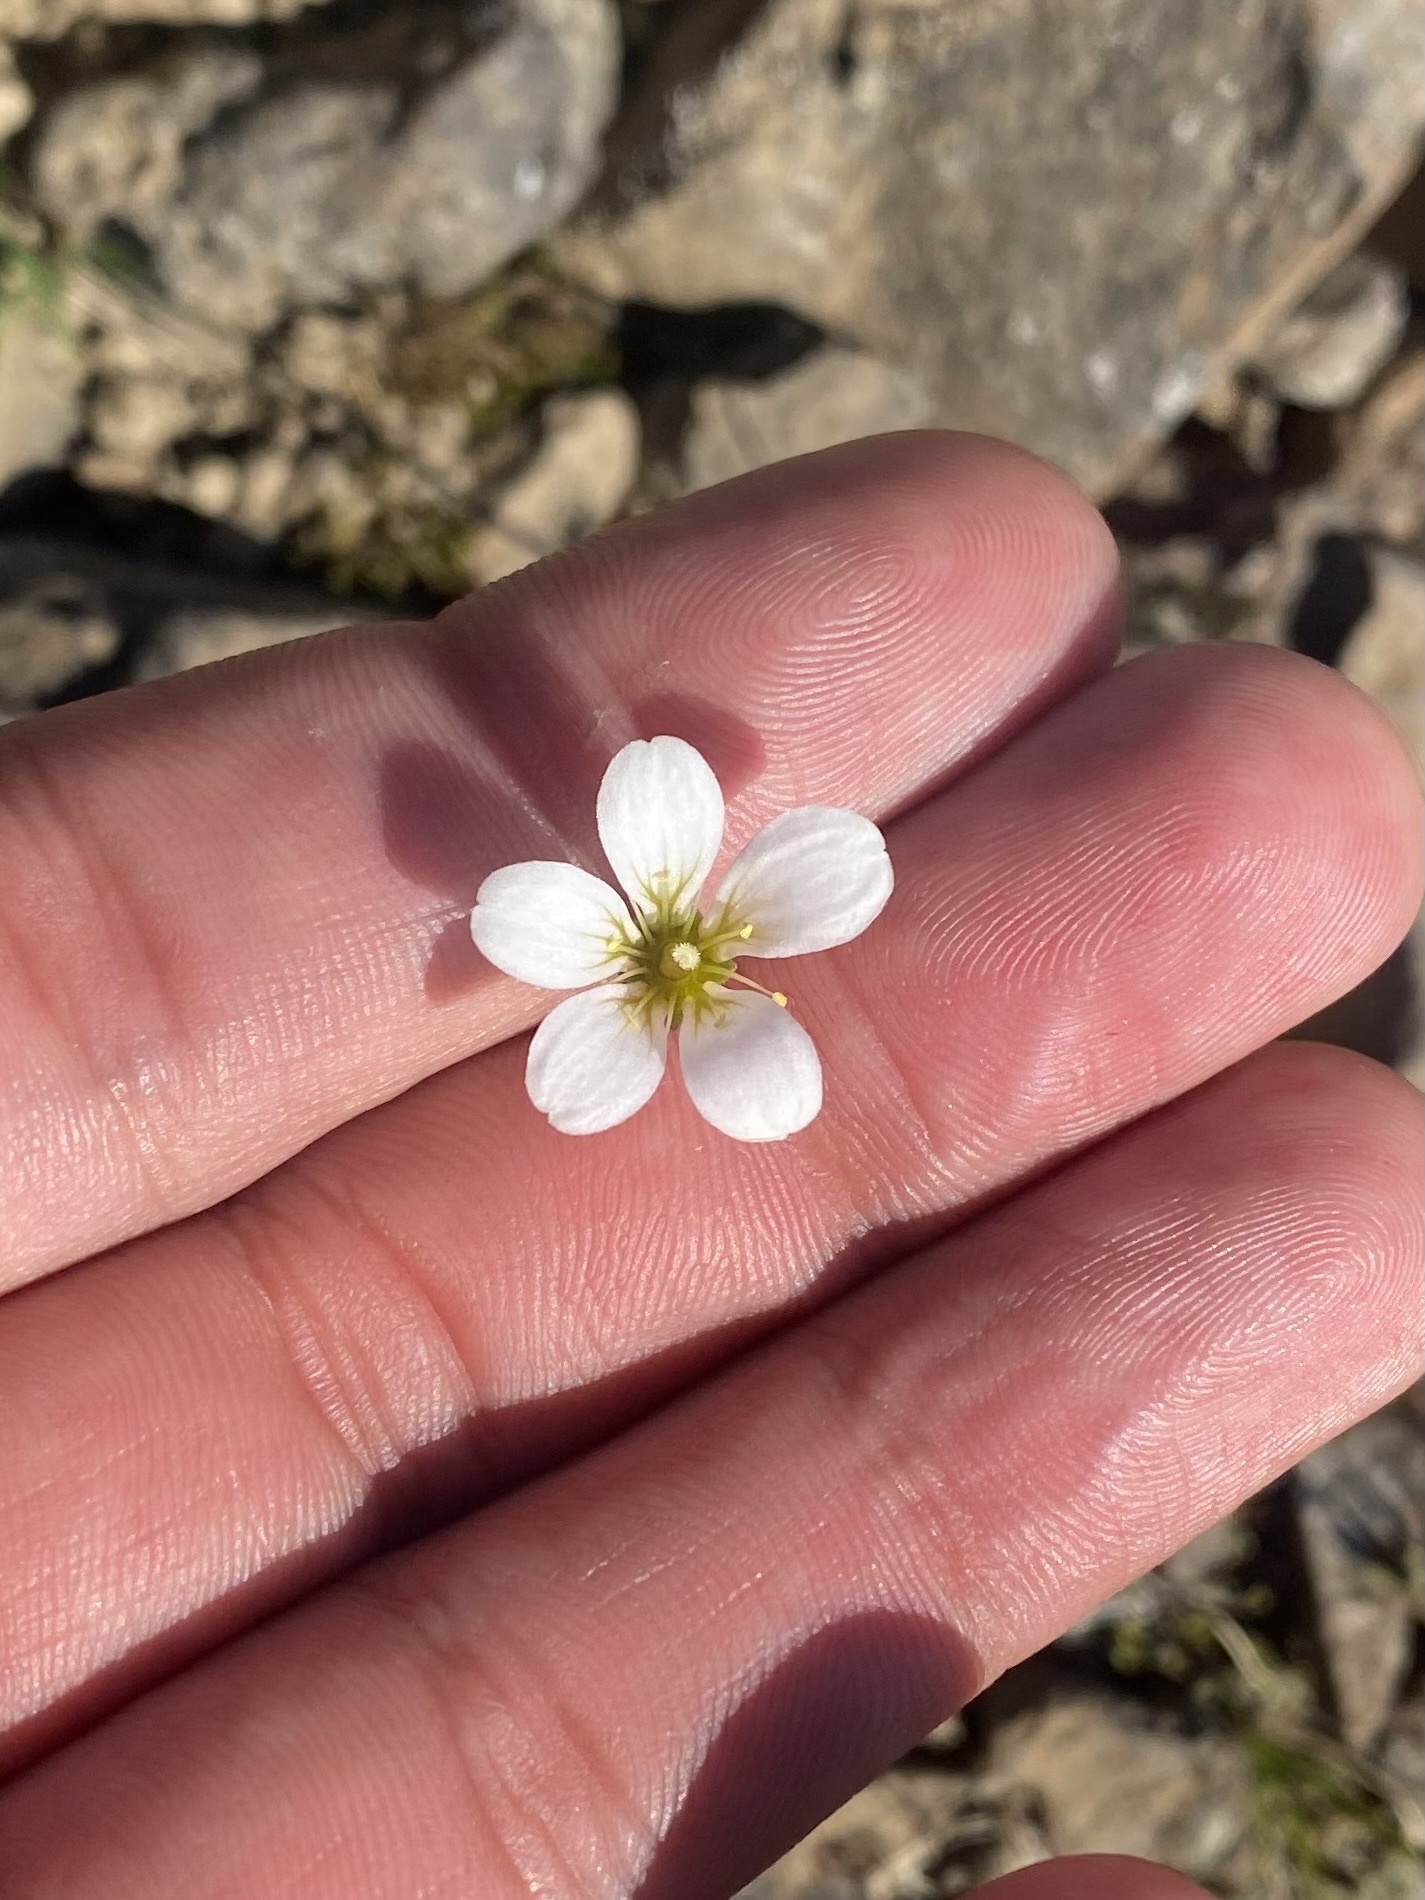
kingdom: Plantae
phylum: Tracheophyta
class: Magnoliopsida
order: Saxifragales
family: Saxifragaceae
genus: Saxifraga
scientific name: Saxifraga cernua
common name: Drooping saxifrage
